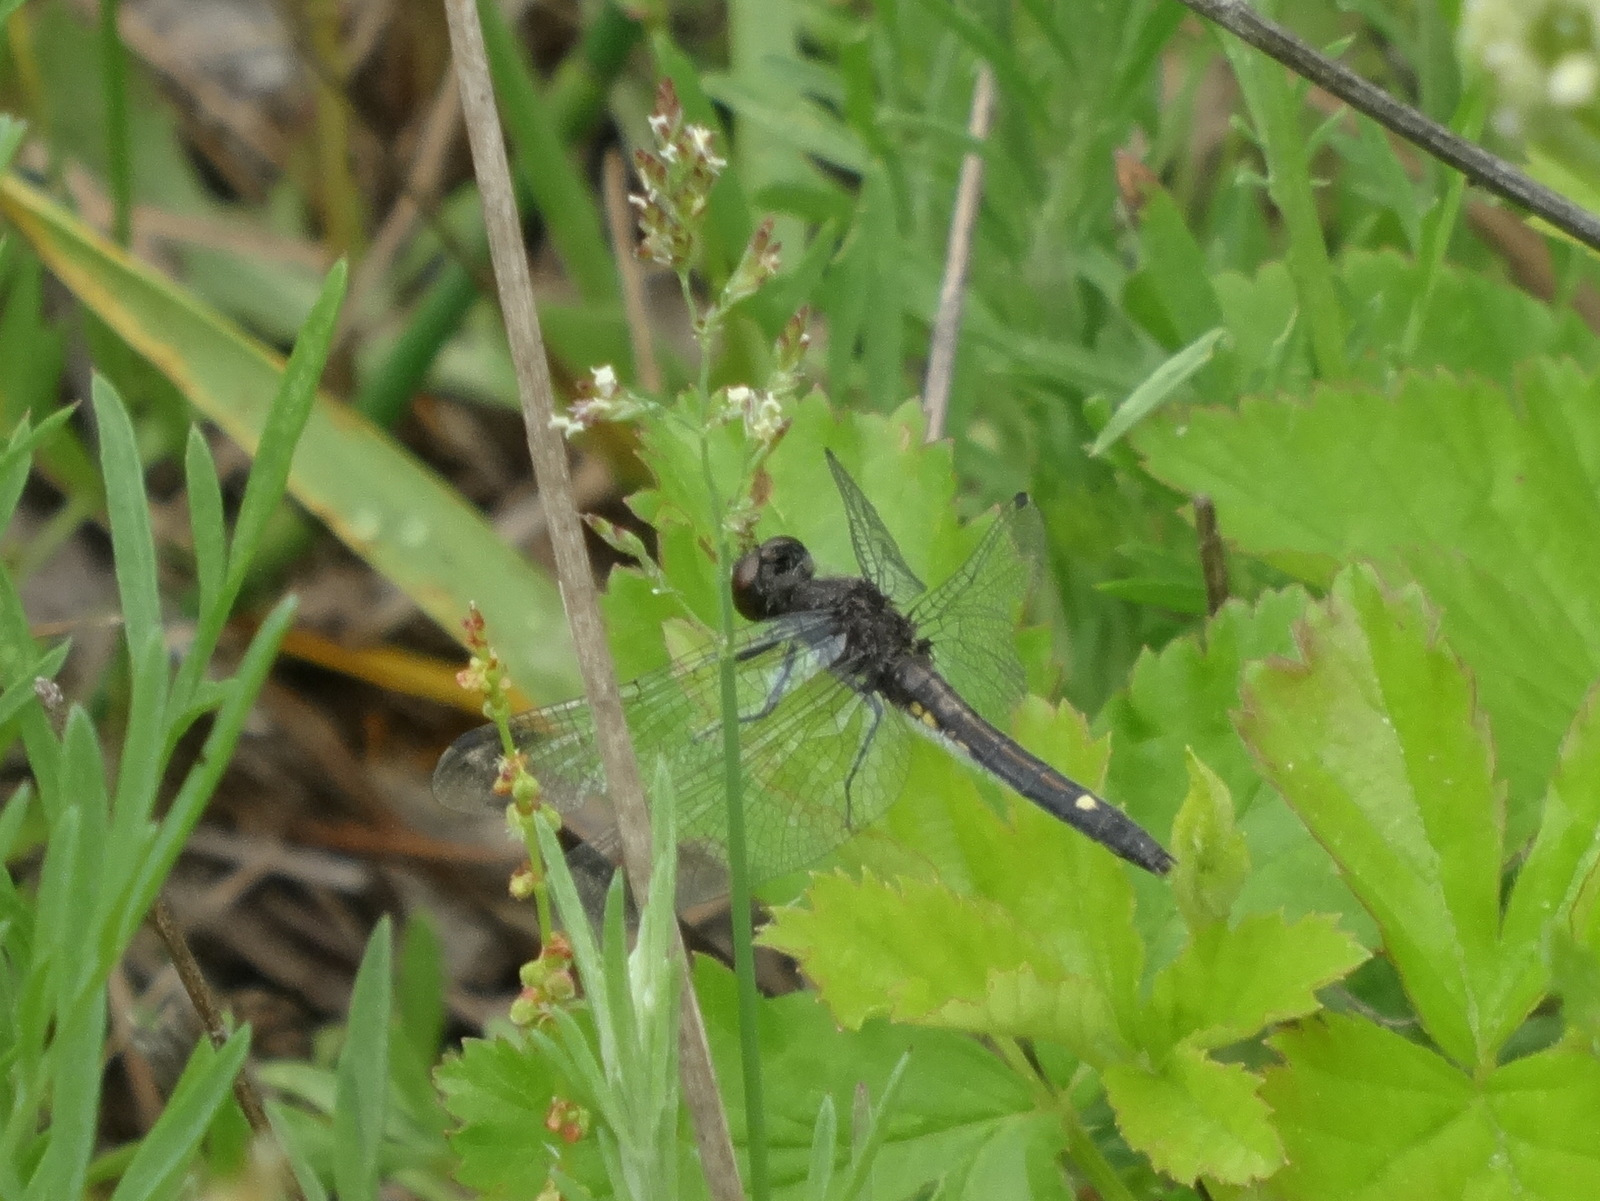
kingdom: Animalia
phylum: Arthropoda
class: Insecta
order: Odonata
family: Libellulidae
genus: Leucorrhinia
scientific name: Leucorrhinia intacta
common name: Dot-tailed whiteface
